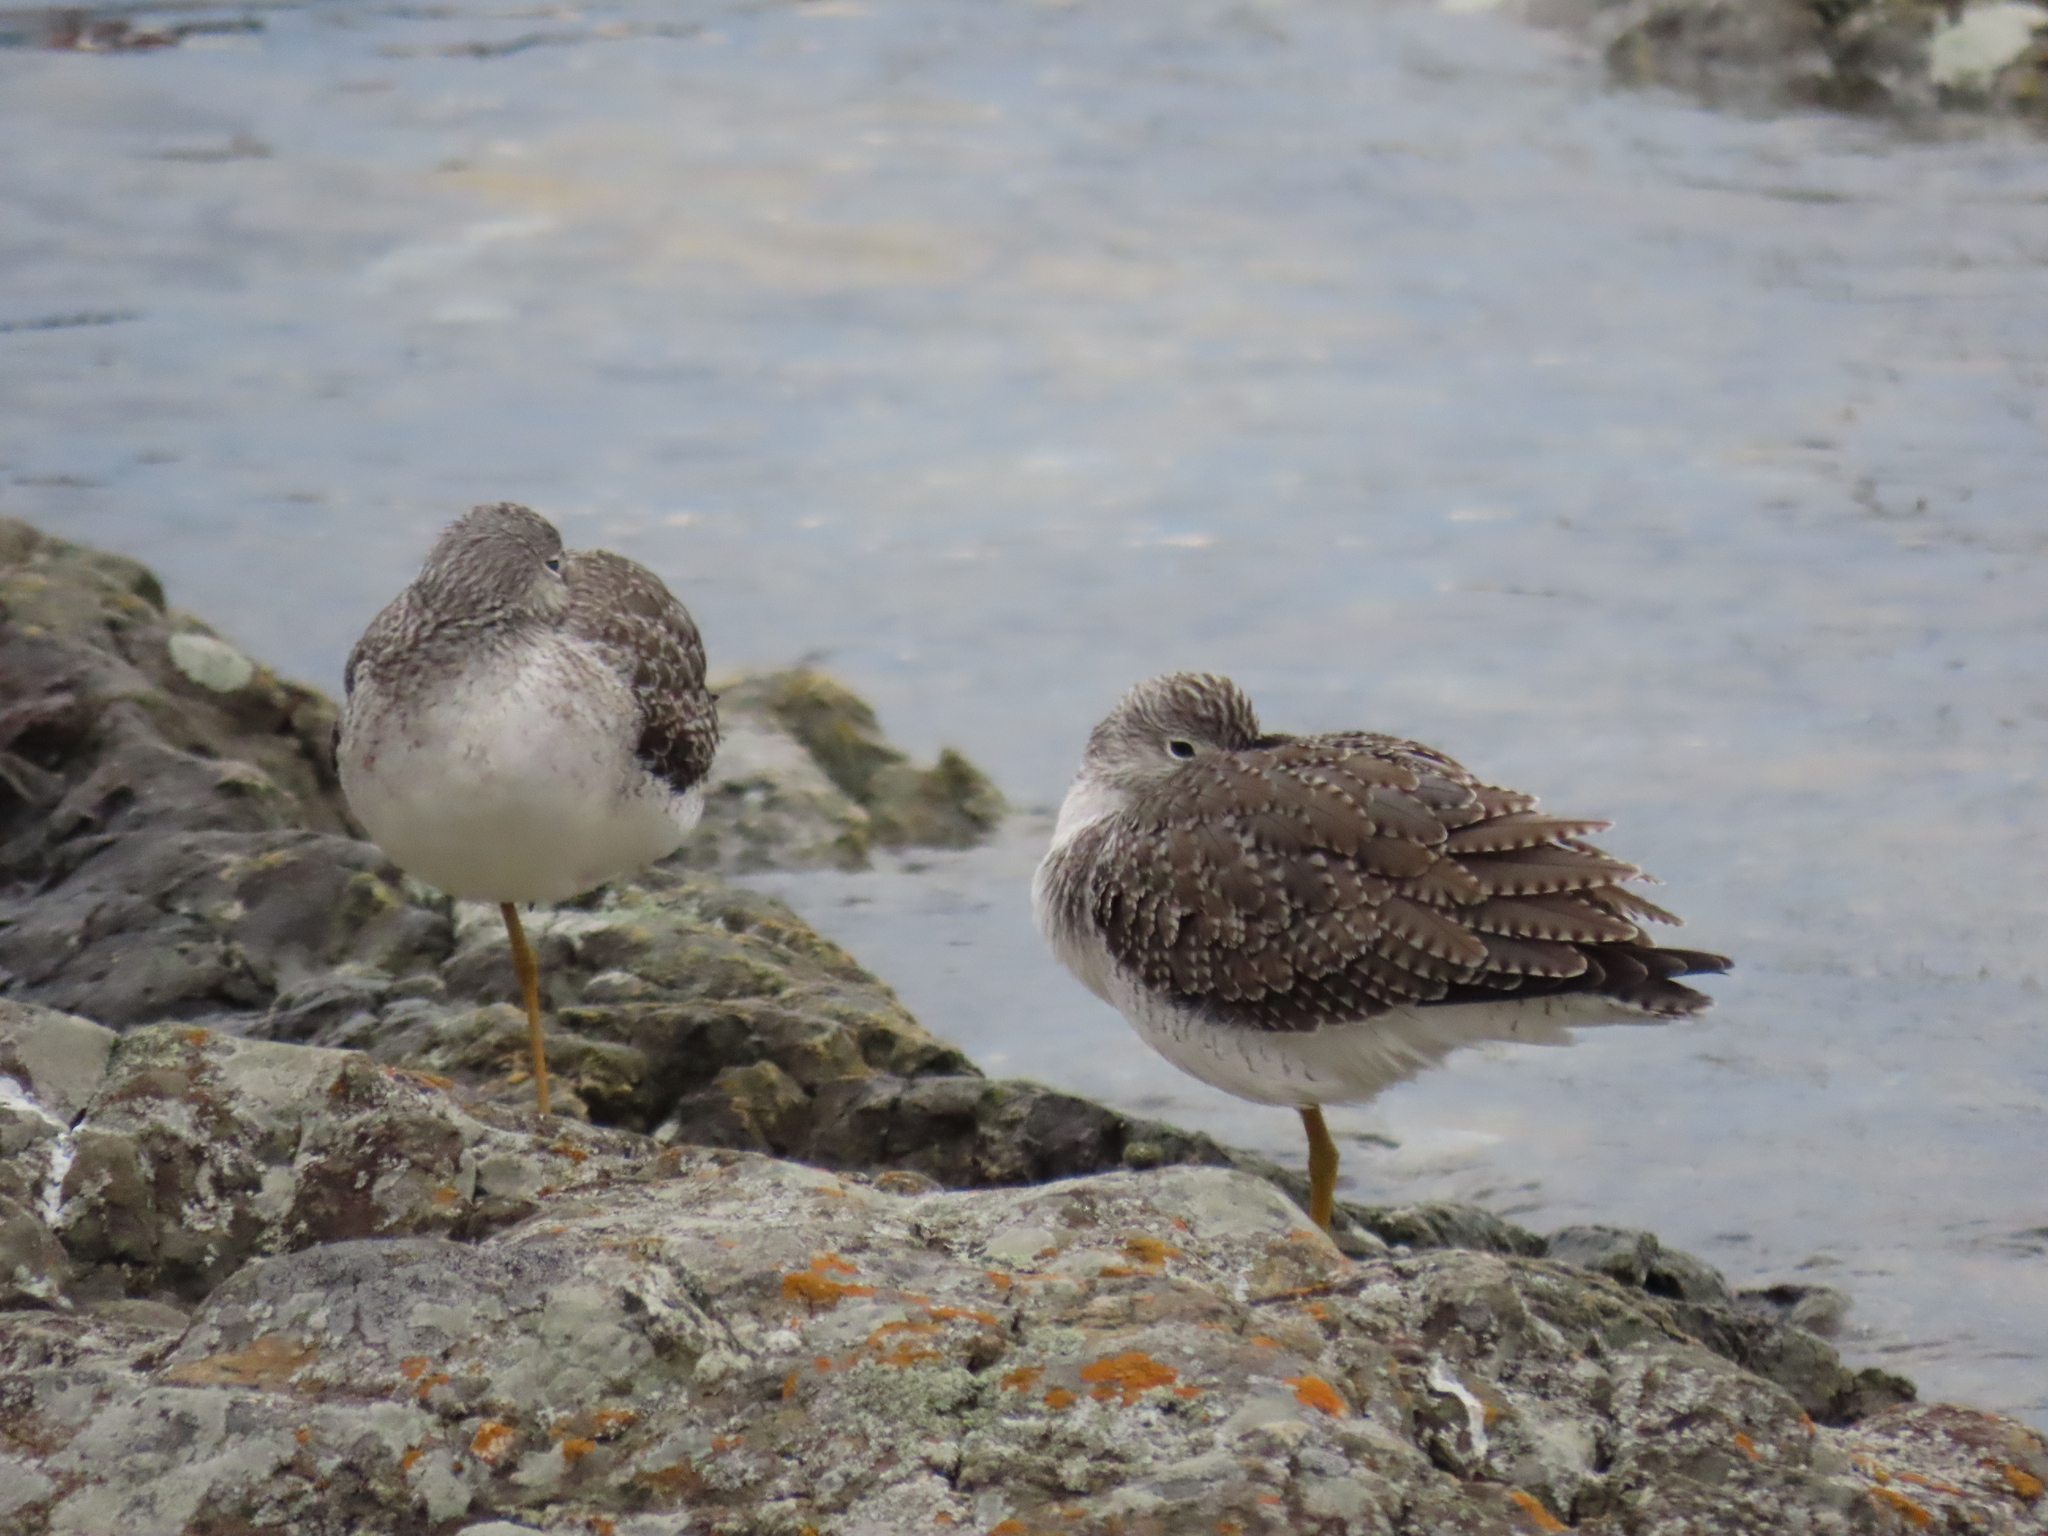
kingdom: Animalia
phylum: Chordata
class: Aves
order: Charadriiformes
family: Scolopacidae
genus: Tringa
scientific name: Tringa melanoleuca
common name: Greater yellowlegs
